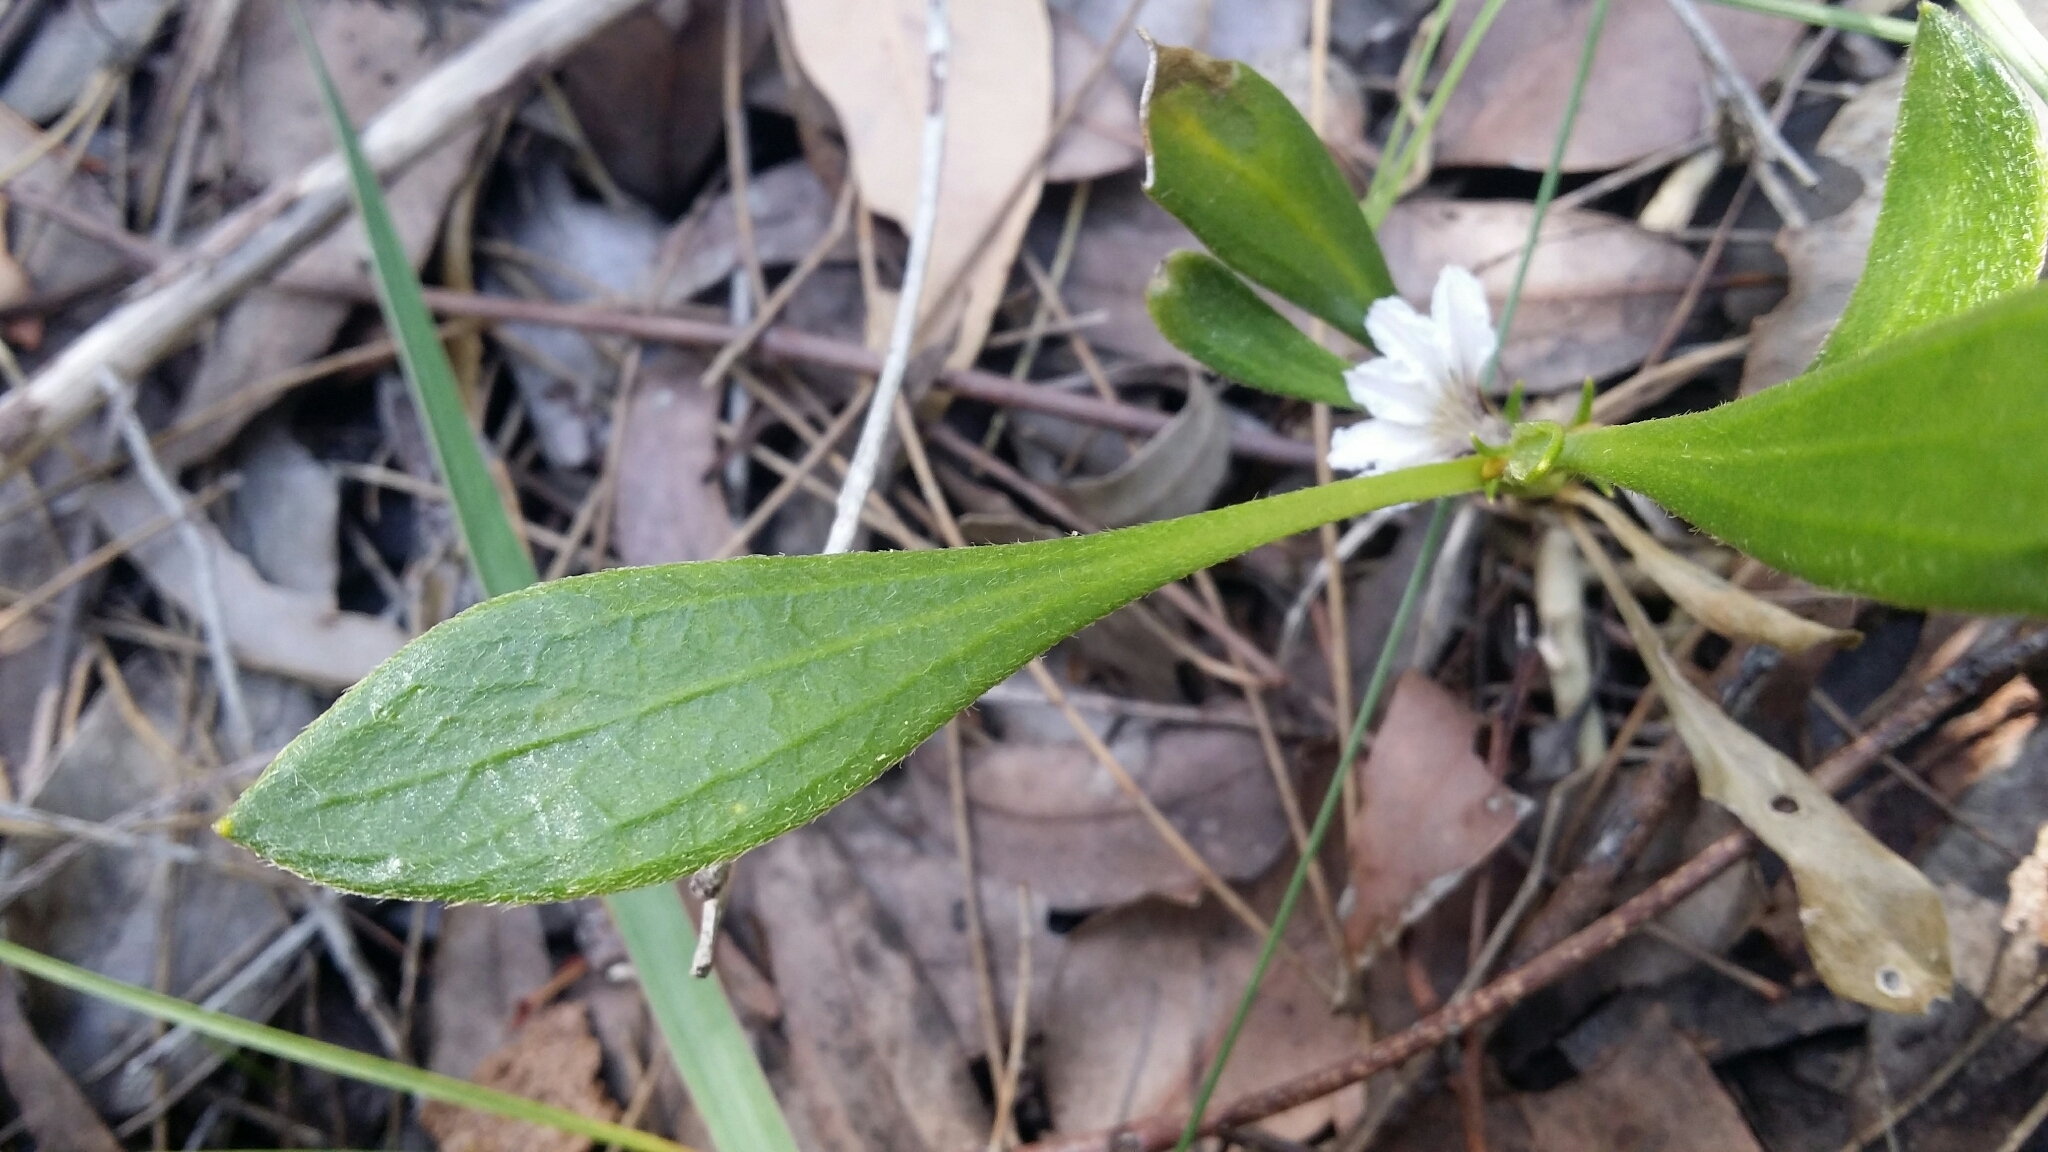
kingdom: Plantae
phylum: Tracheophyta
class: Magnoliopsida
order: Asterales
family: Goodeniaceae
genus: Scaevola
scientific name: Scaevola repens
